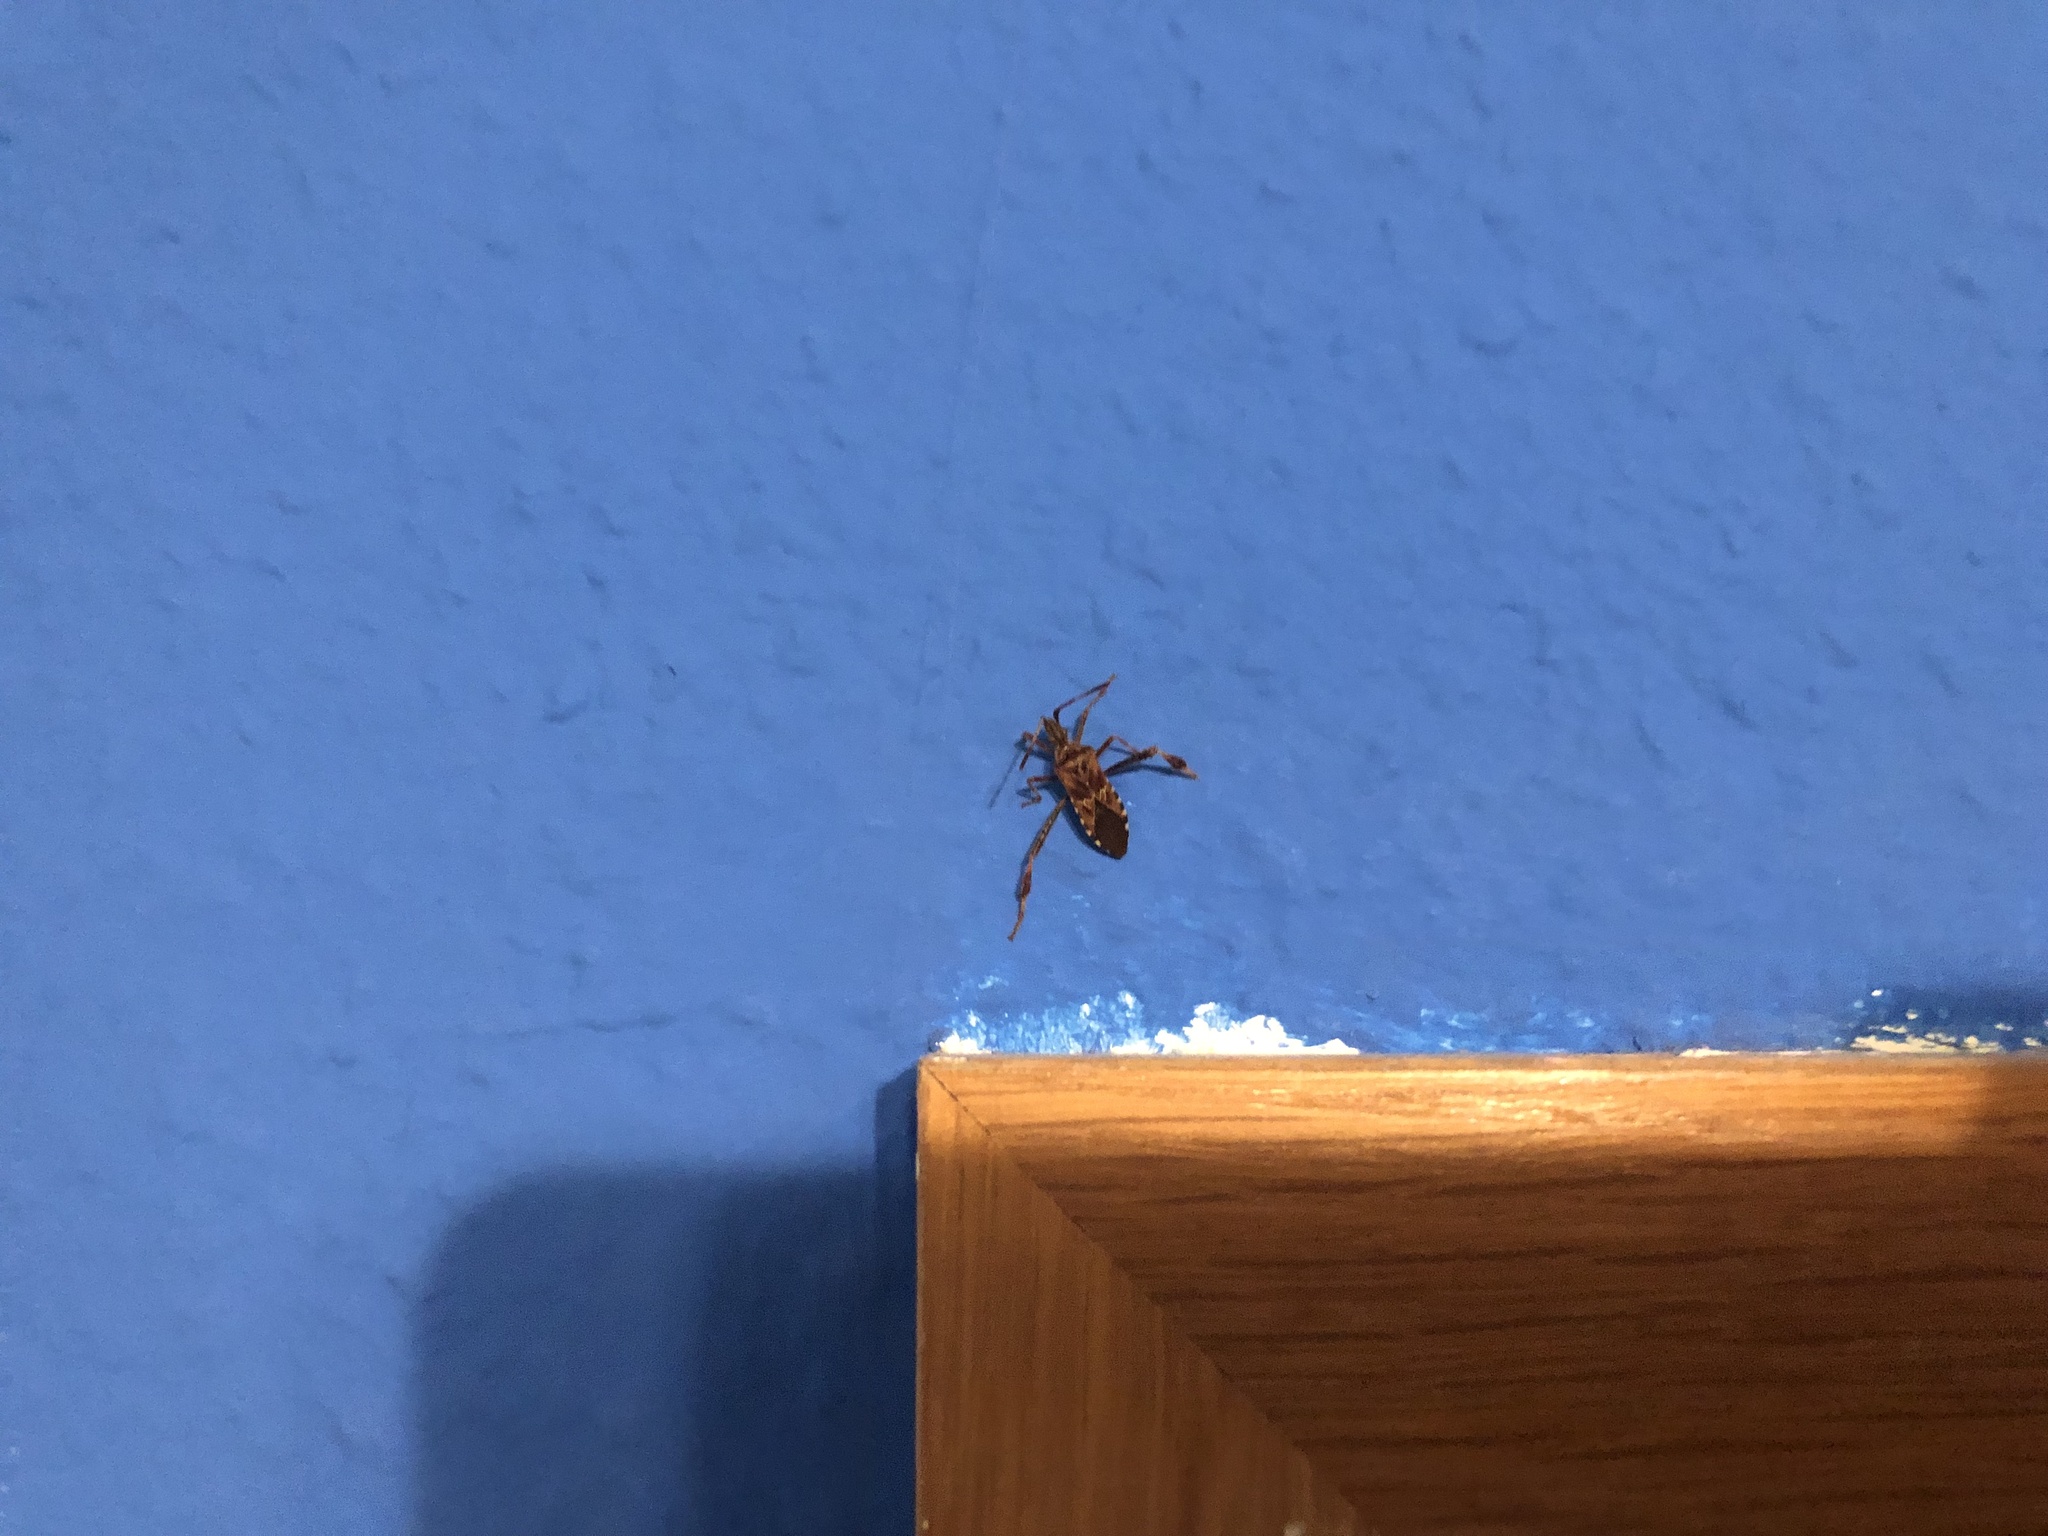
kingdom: Animalia
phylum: Arthropoda
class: Insecta
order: Hemiptera
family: Coreidae
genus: Leptoglossus
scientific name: Leptoglossus occidentalis
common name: Western conifer-seed bug
